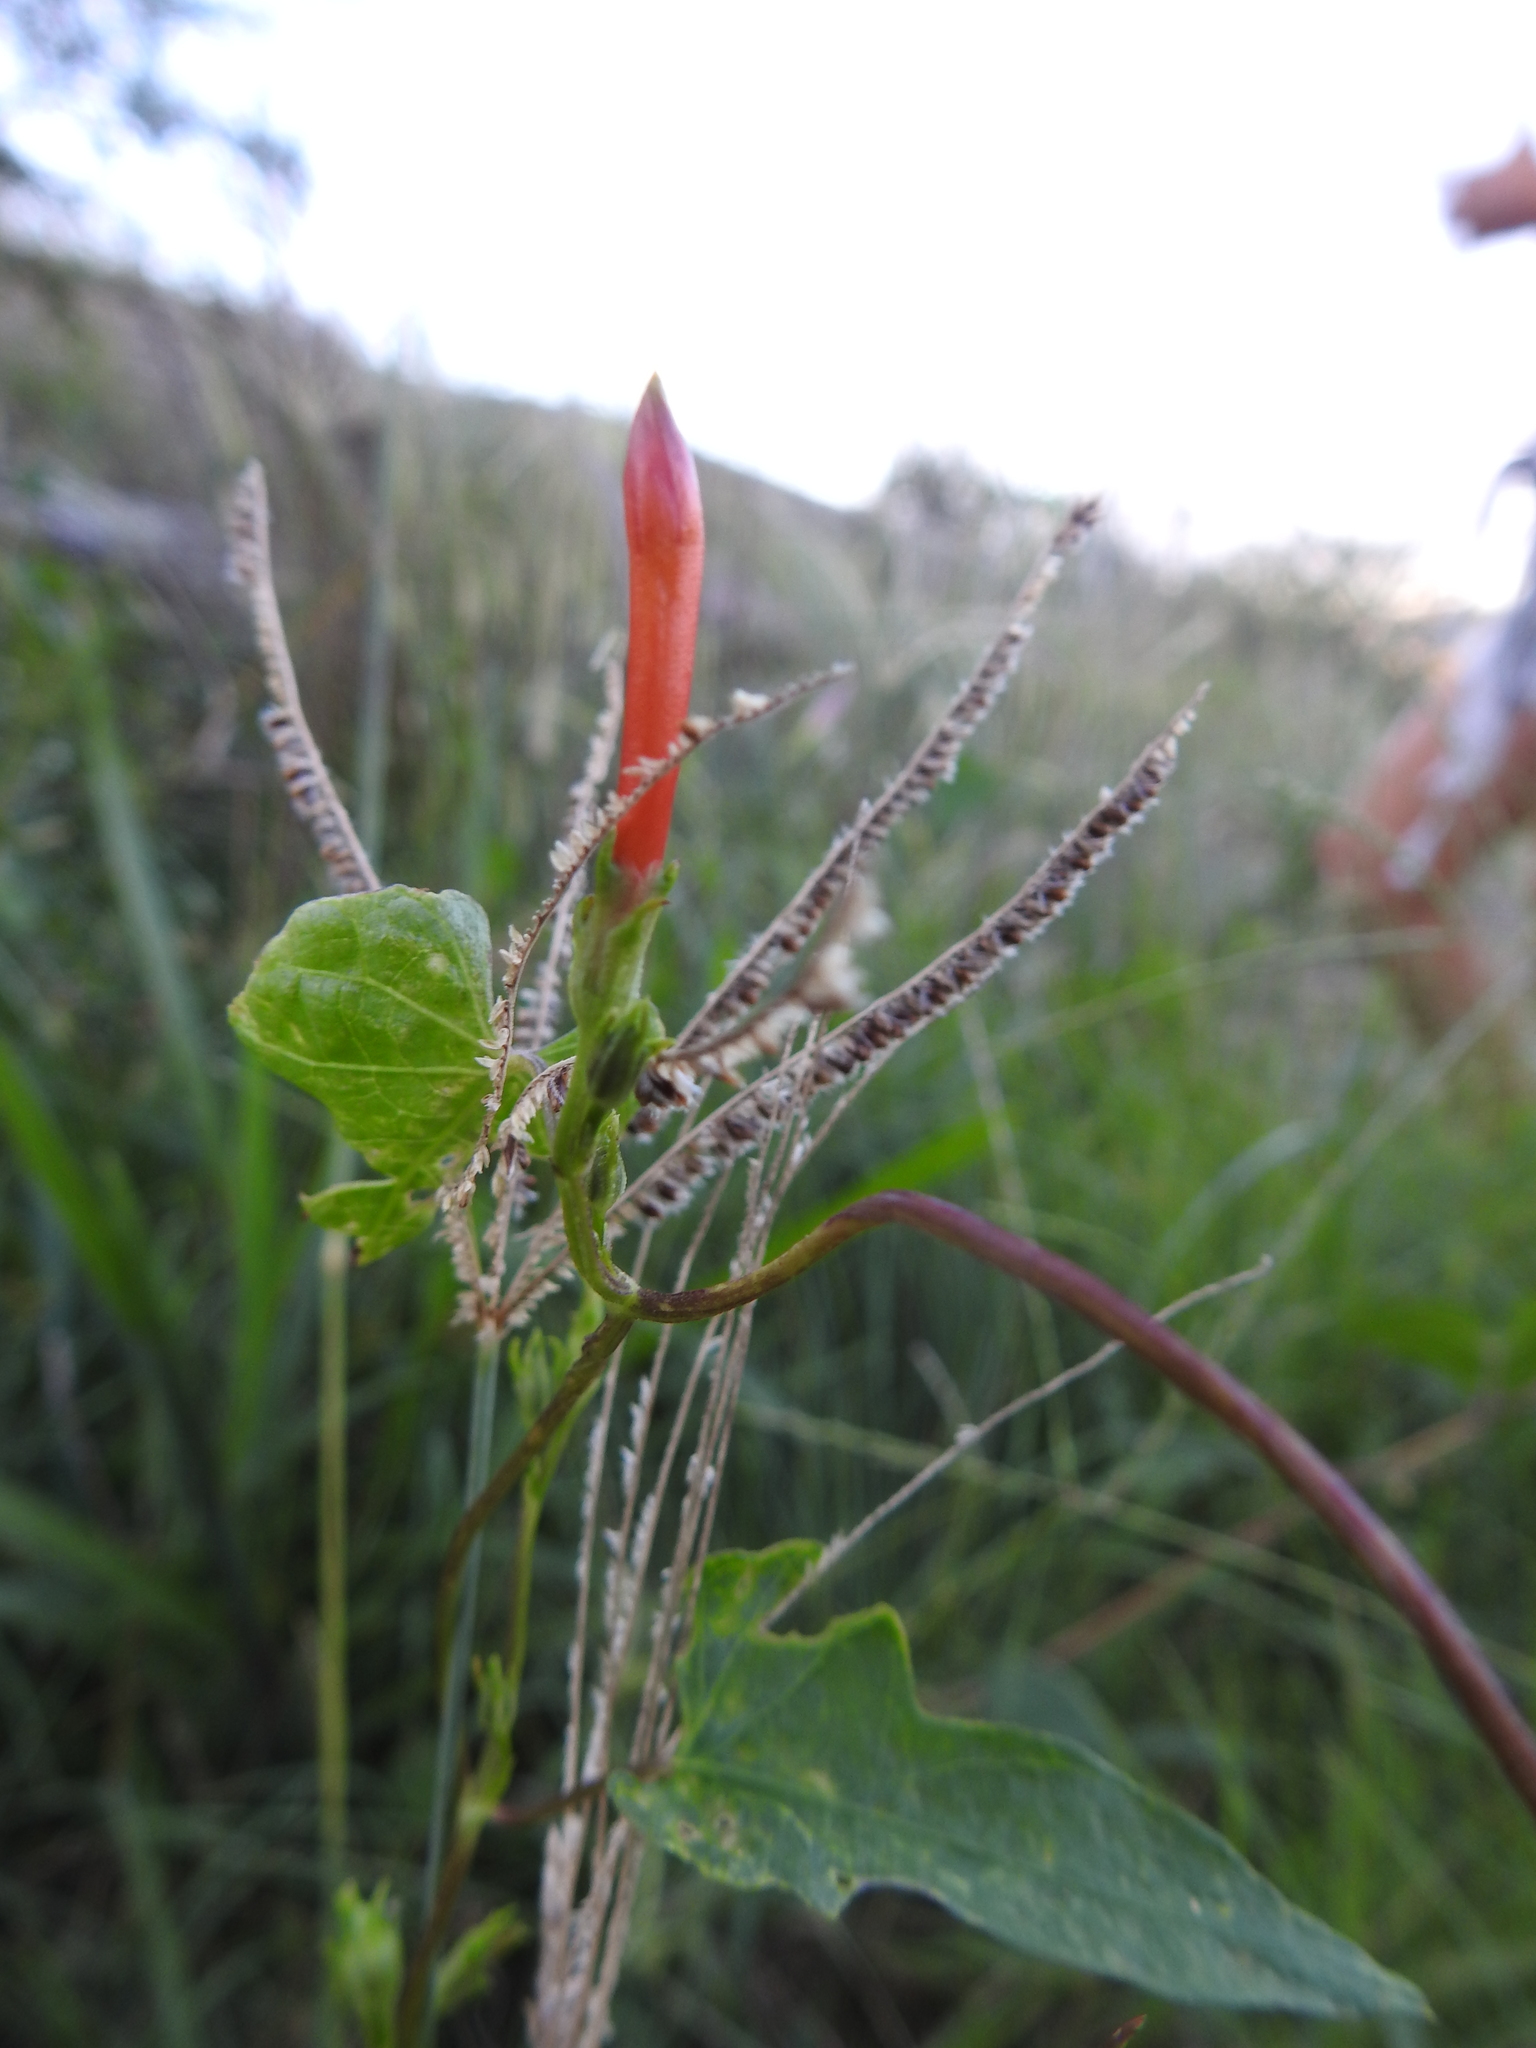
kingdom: Plantae
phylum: Tracheophyta
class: Magnoliopsida
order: Solanales
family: Convolvulaceae
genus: Ipomoea
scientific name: Ipomoea rubriflora
